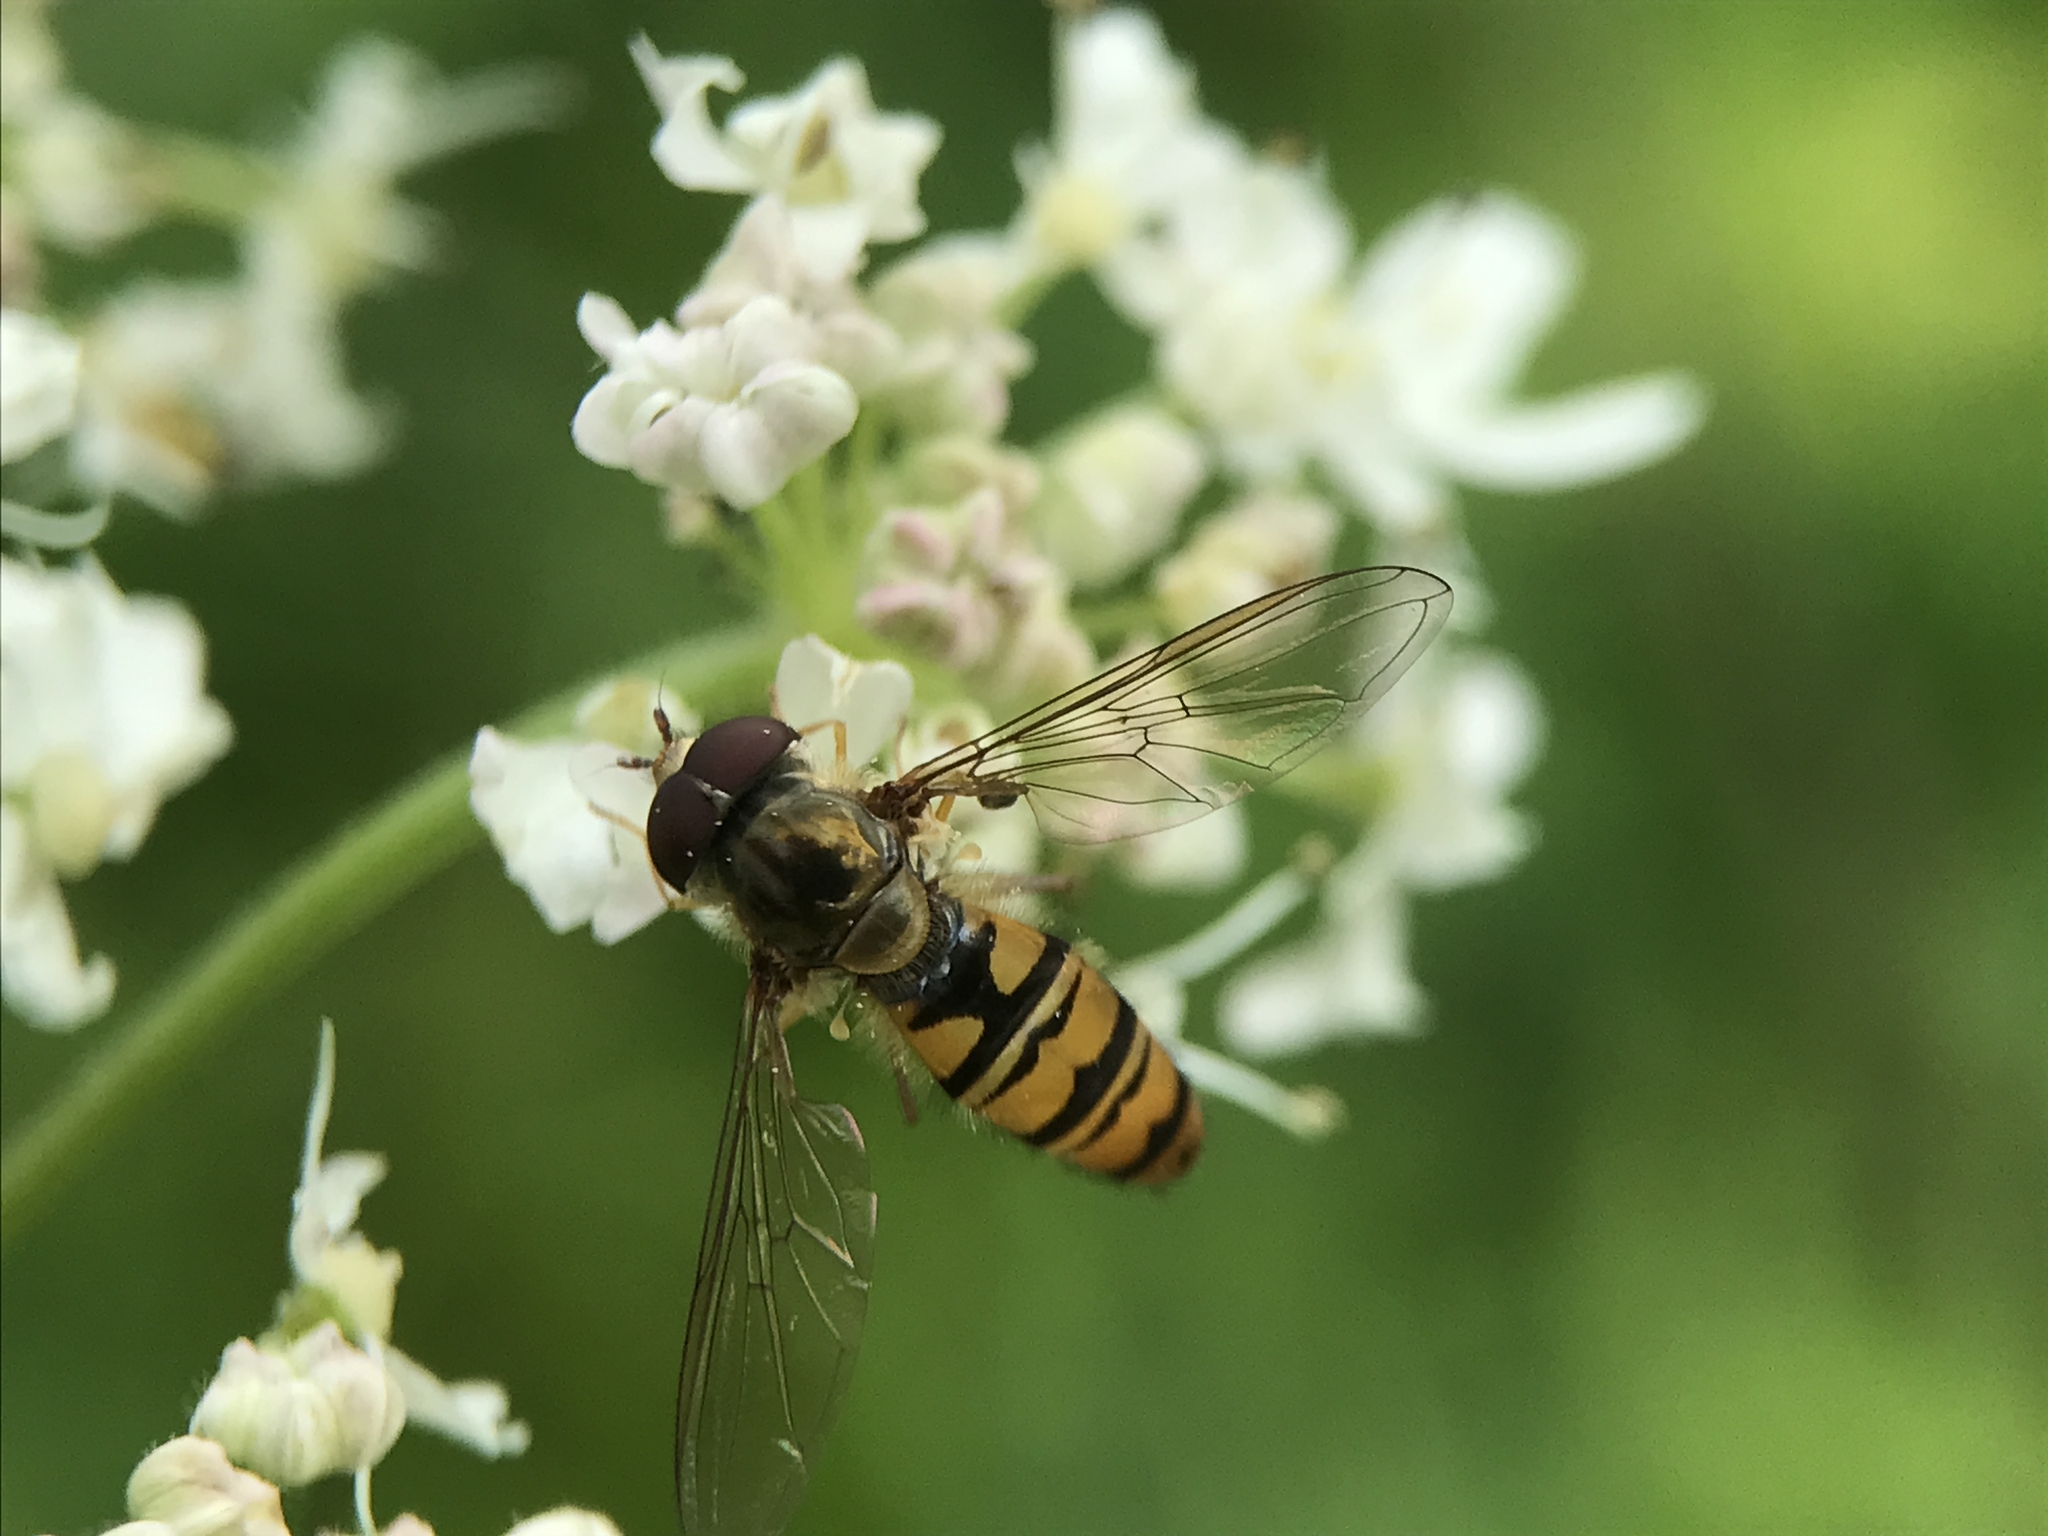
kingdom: Animalia
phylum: Arthropoda
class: Insecta
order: Diptera
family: Syrphidae
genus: Episyrphus
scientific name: Episyrphus balteatus
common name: Marmalade hoverfly
